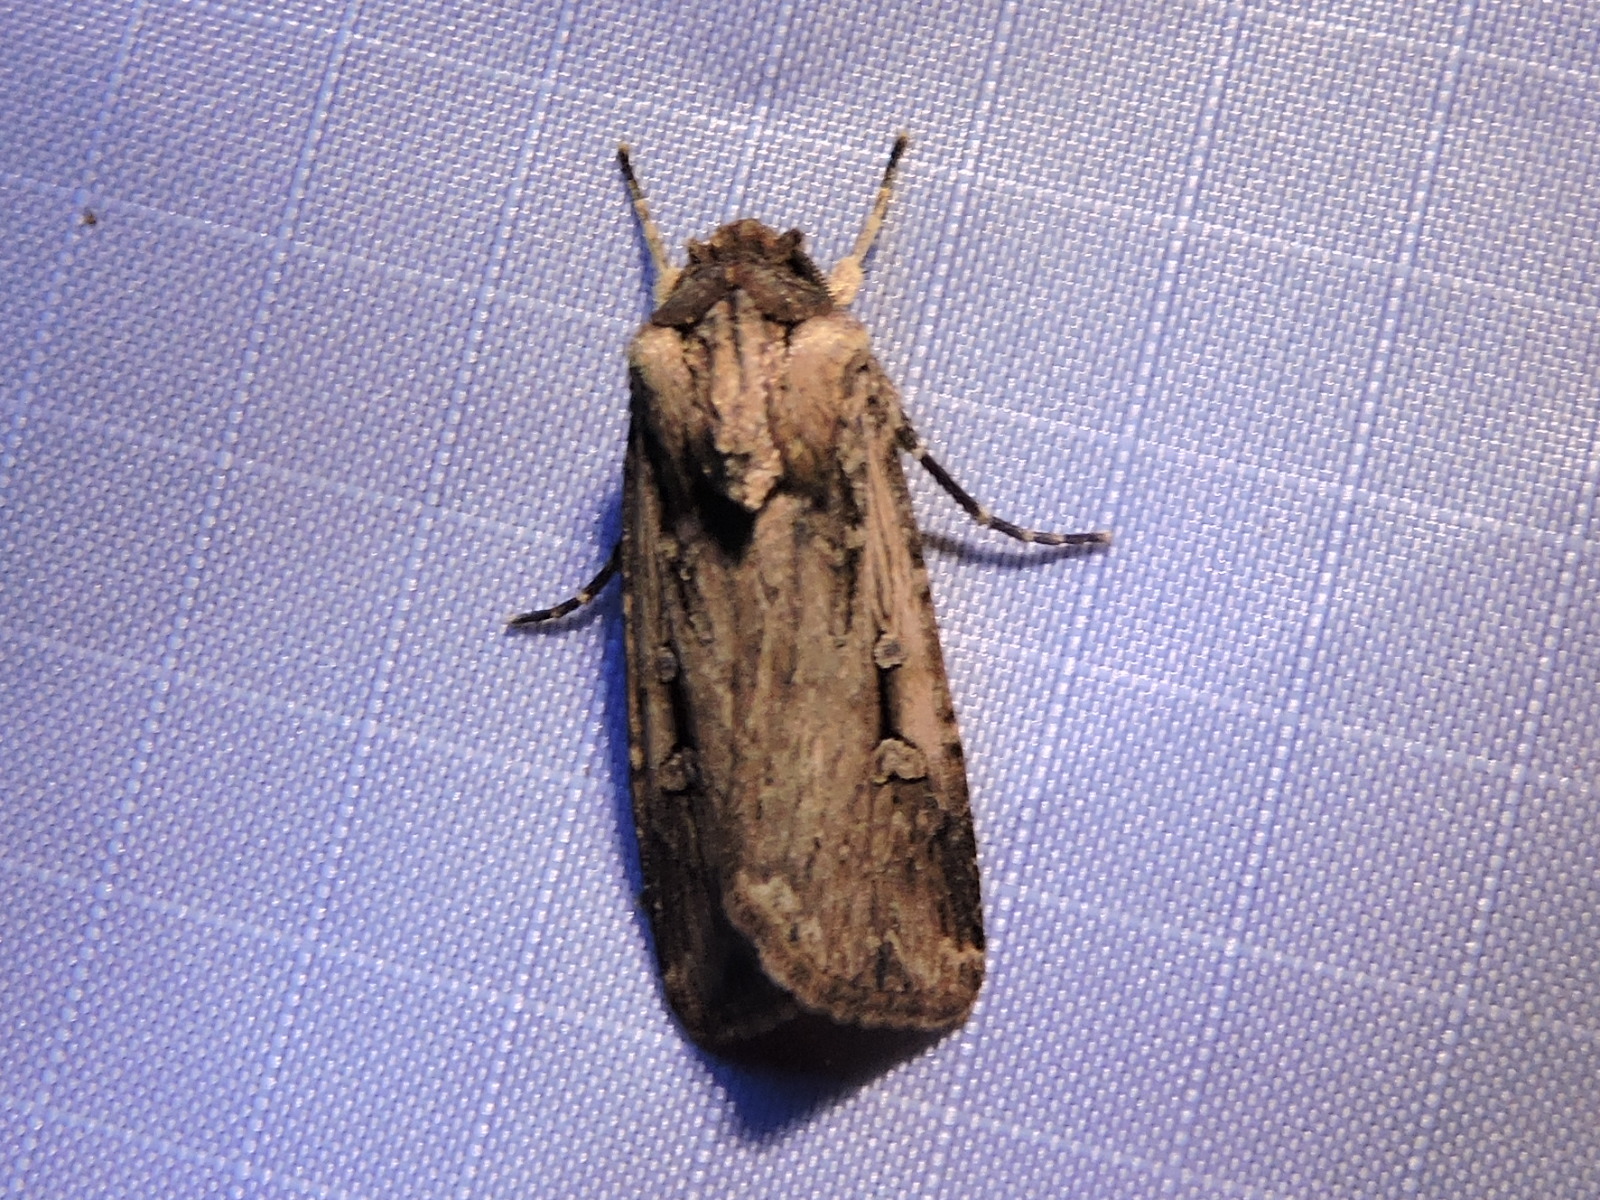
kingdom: Animalia
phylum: Arthropoda
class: Insecta
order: Lepidoptera
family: Noctuidae
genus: Feltia
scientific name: Feltia subterranea
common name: Granulate cutworm
